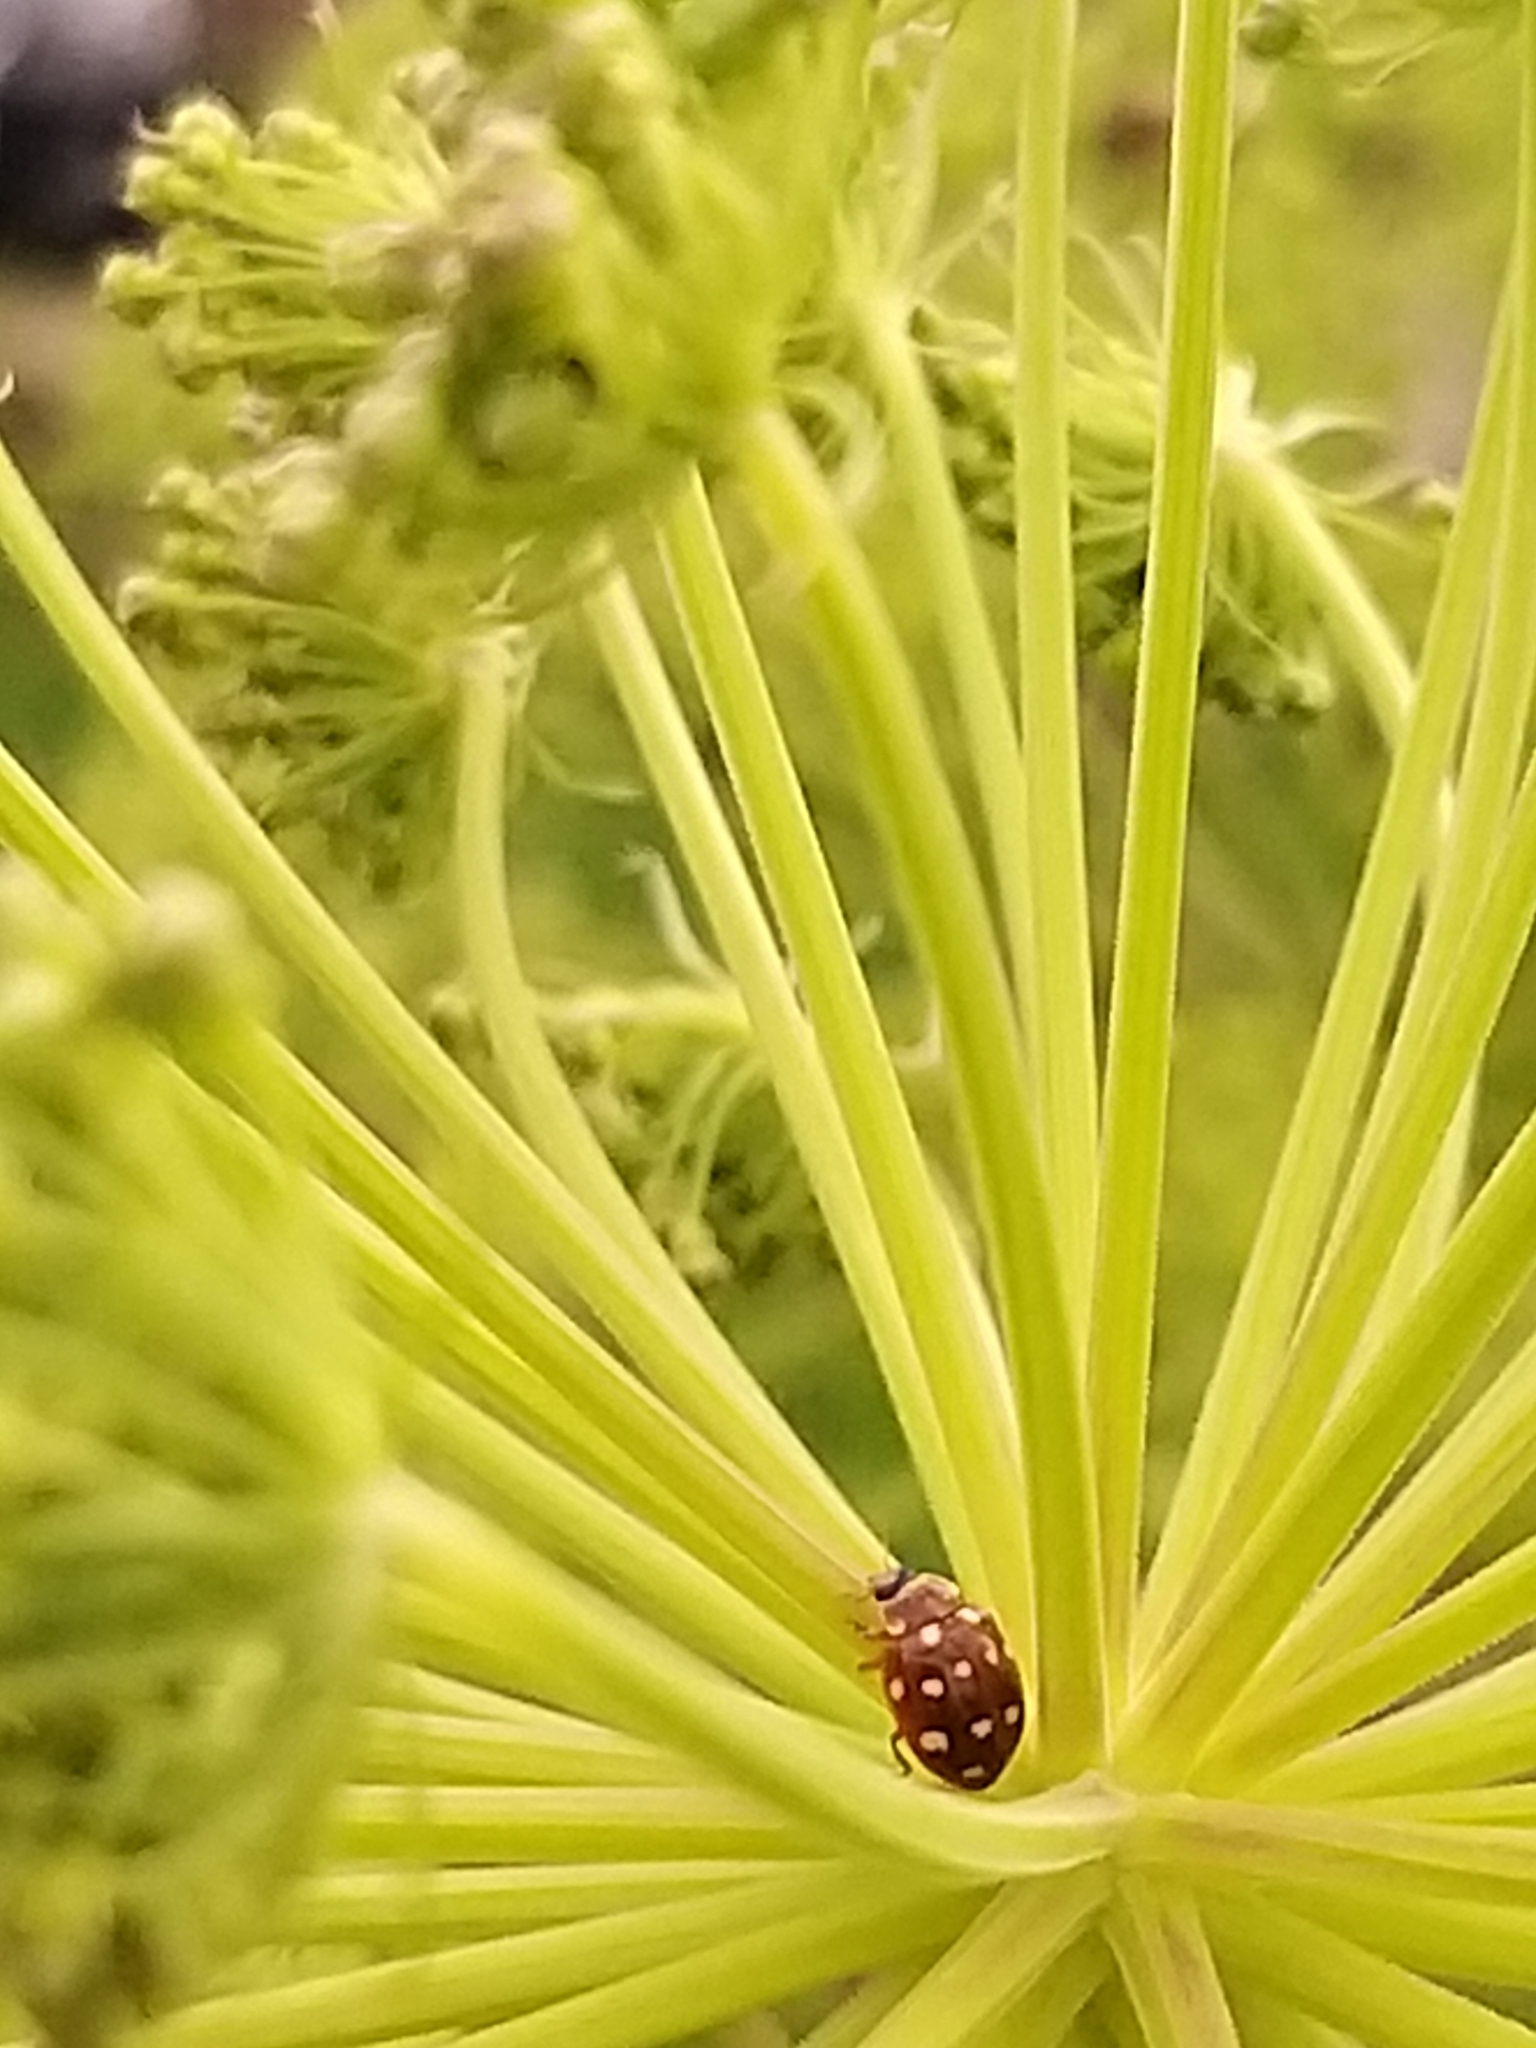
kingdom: Animalia
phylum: Arthropoda
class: Insecta
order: Coleoptera
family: Coccinellidae
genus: Calvia
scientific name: Calvia quatuordecimguttata
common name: Cream-spot ladybird
